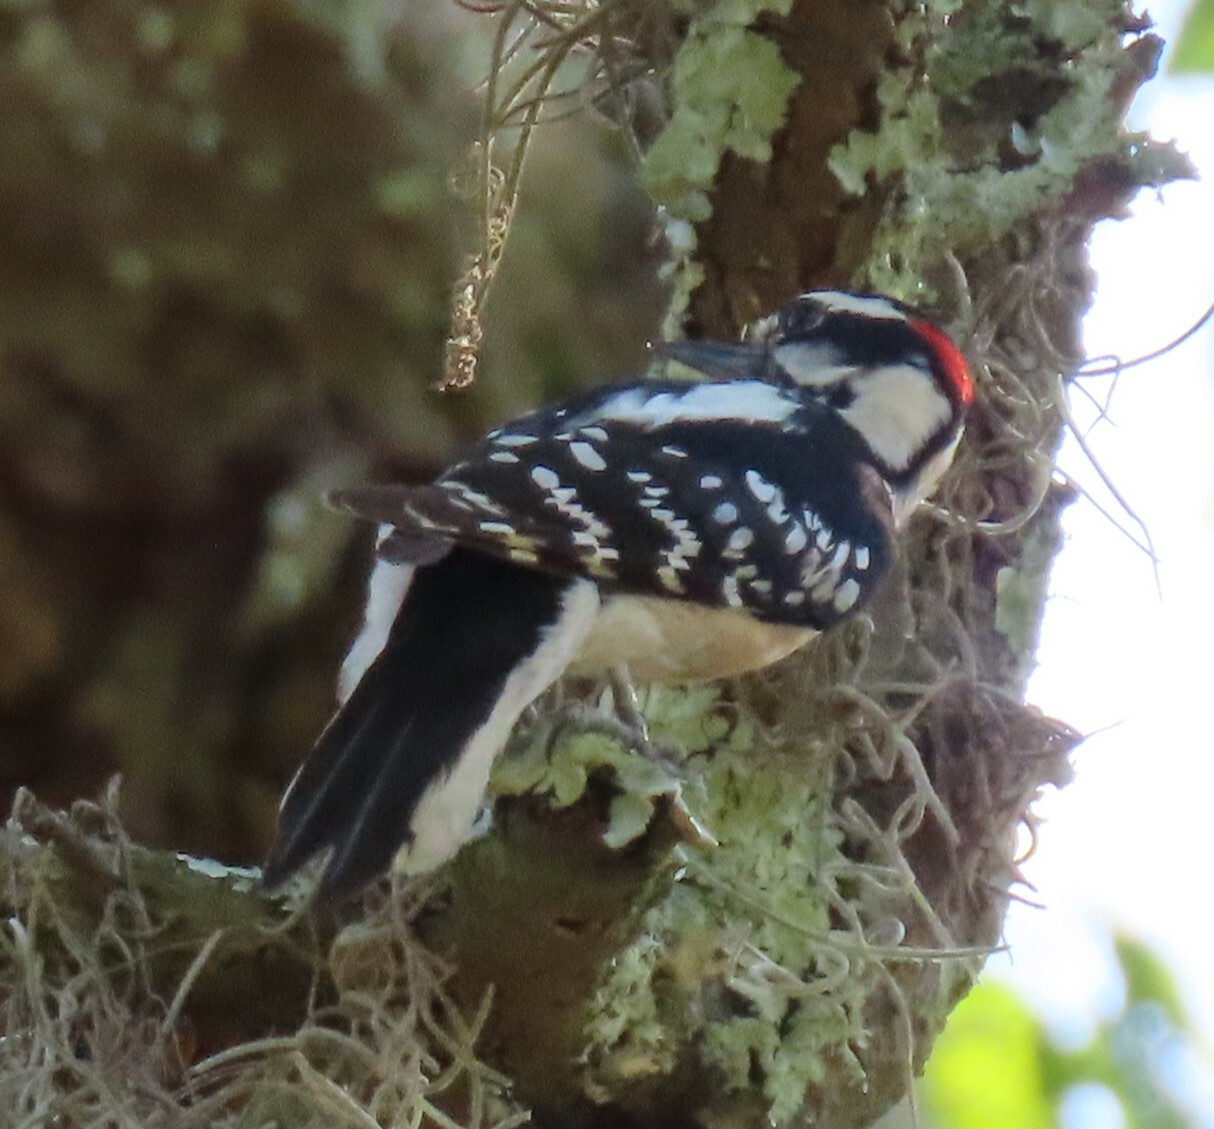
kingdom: Animalia
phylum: Chordata
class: Aves
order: Piciformes
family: Picidae
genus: Dryobates
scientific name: Dryobates pubescens
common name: Downy woodpecker
